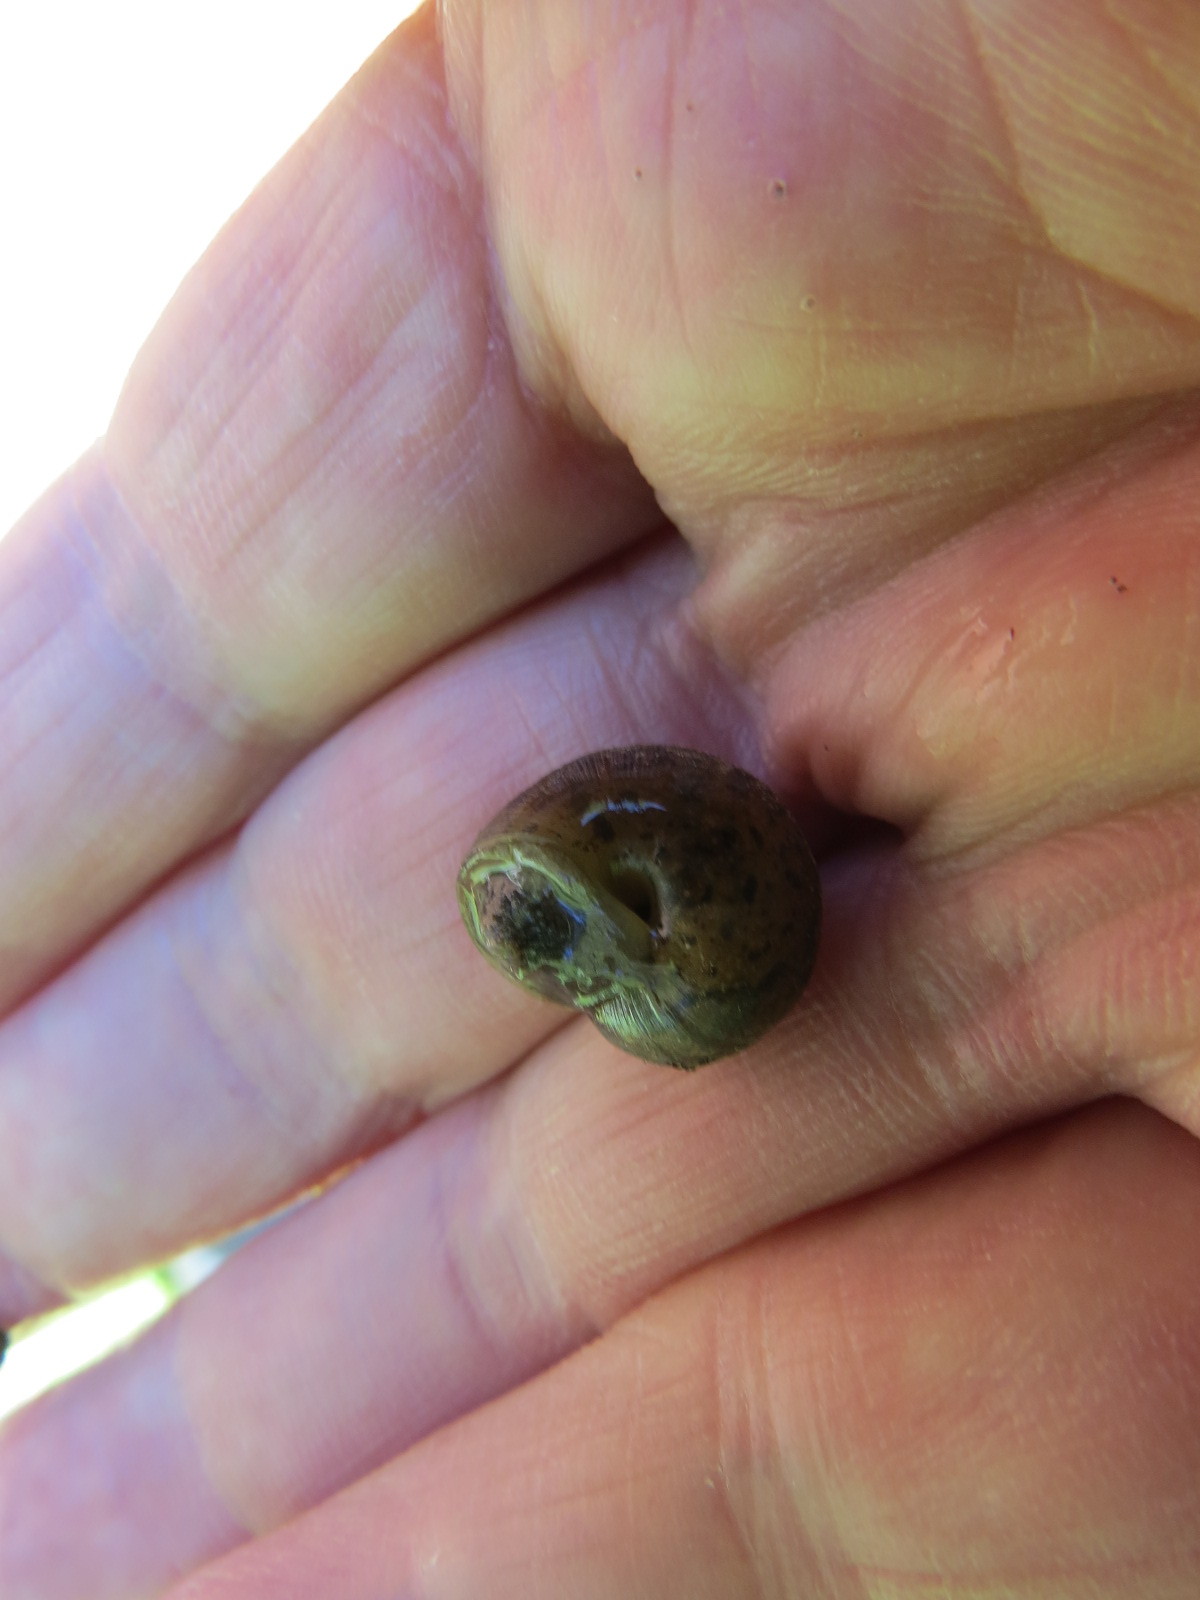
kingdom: Animalia
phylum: Mollusca
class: Gastropoda
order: Stylommatophora
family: Xanthonychidae
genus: Helminthoglypta
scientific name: Helminthoglypta nickliniana
